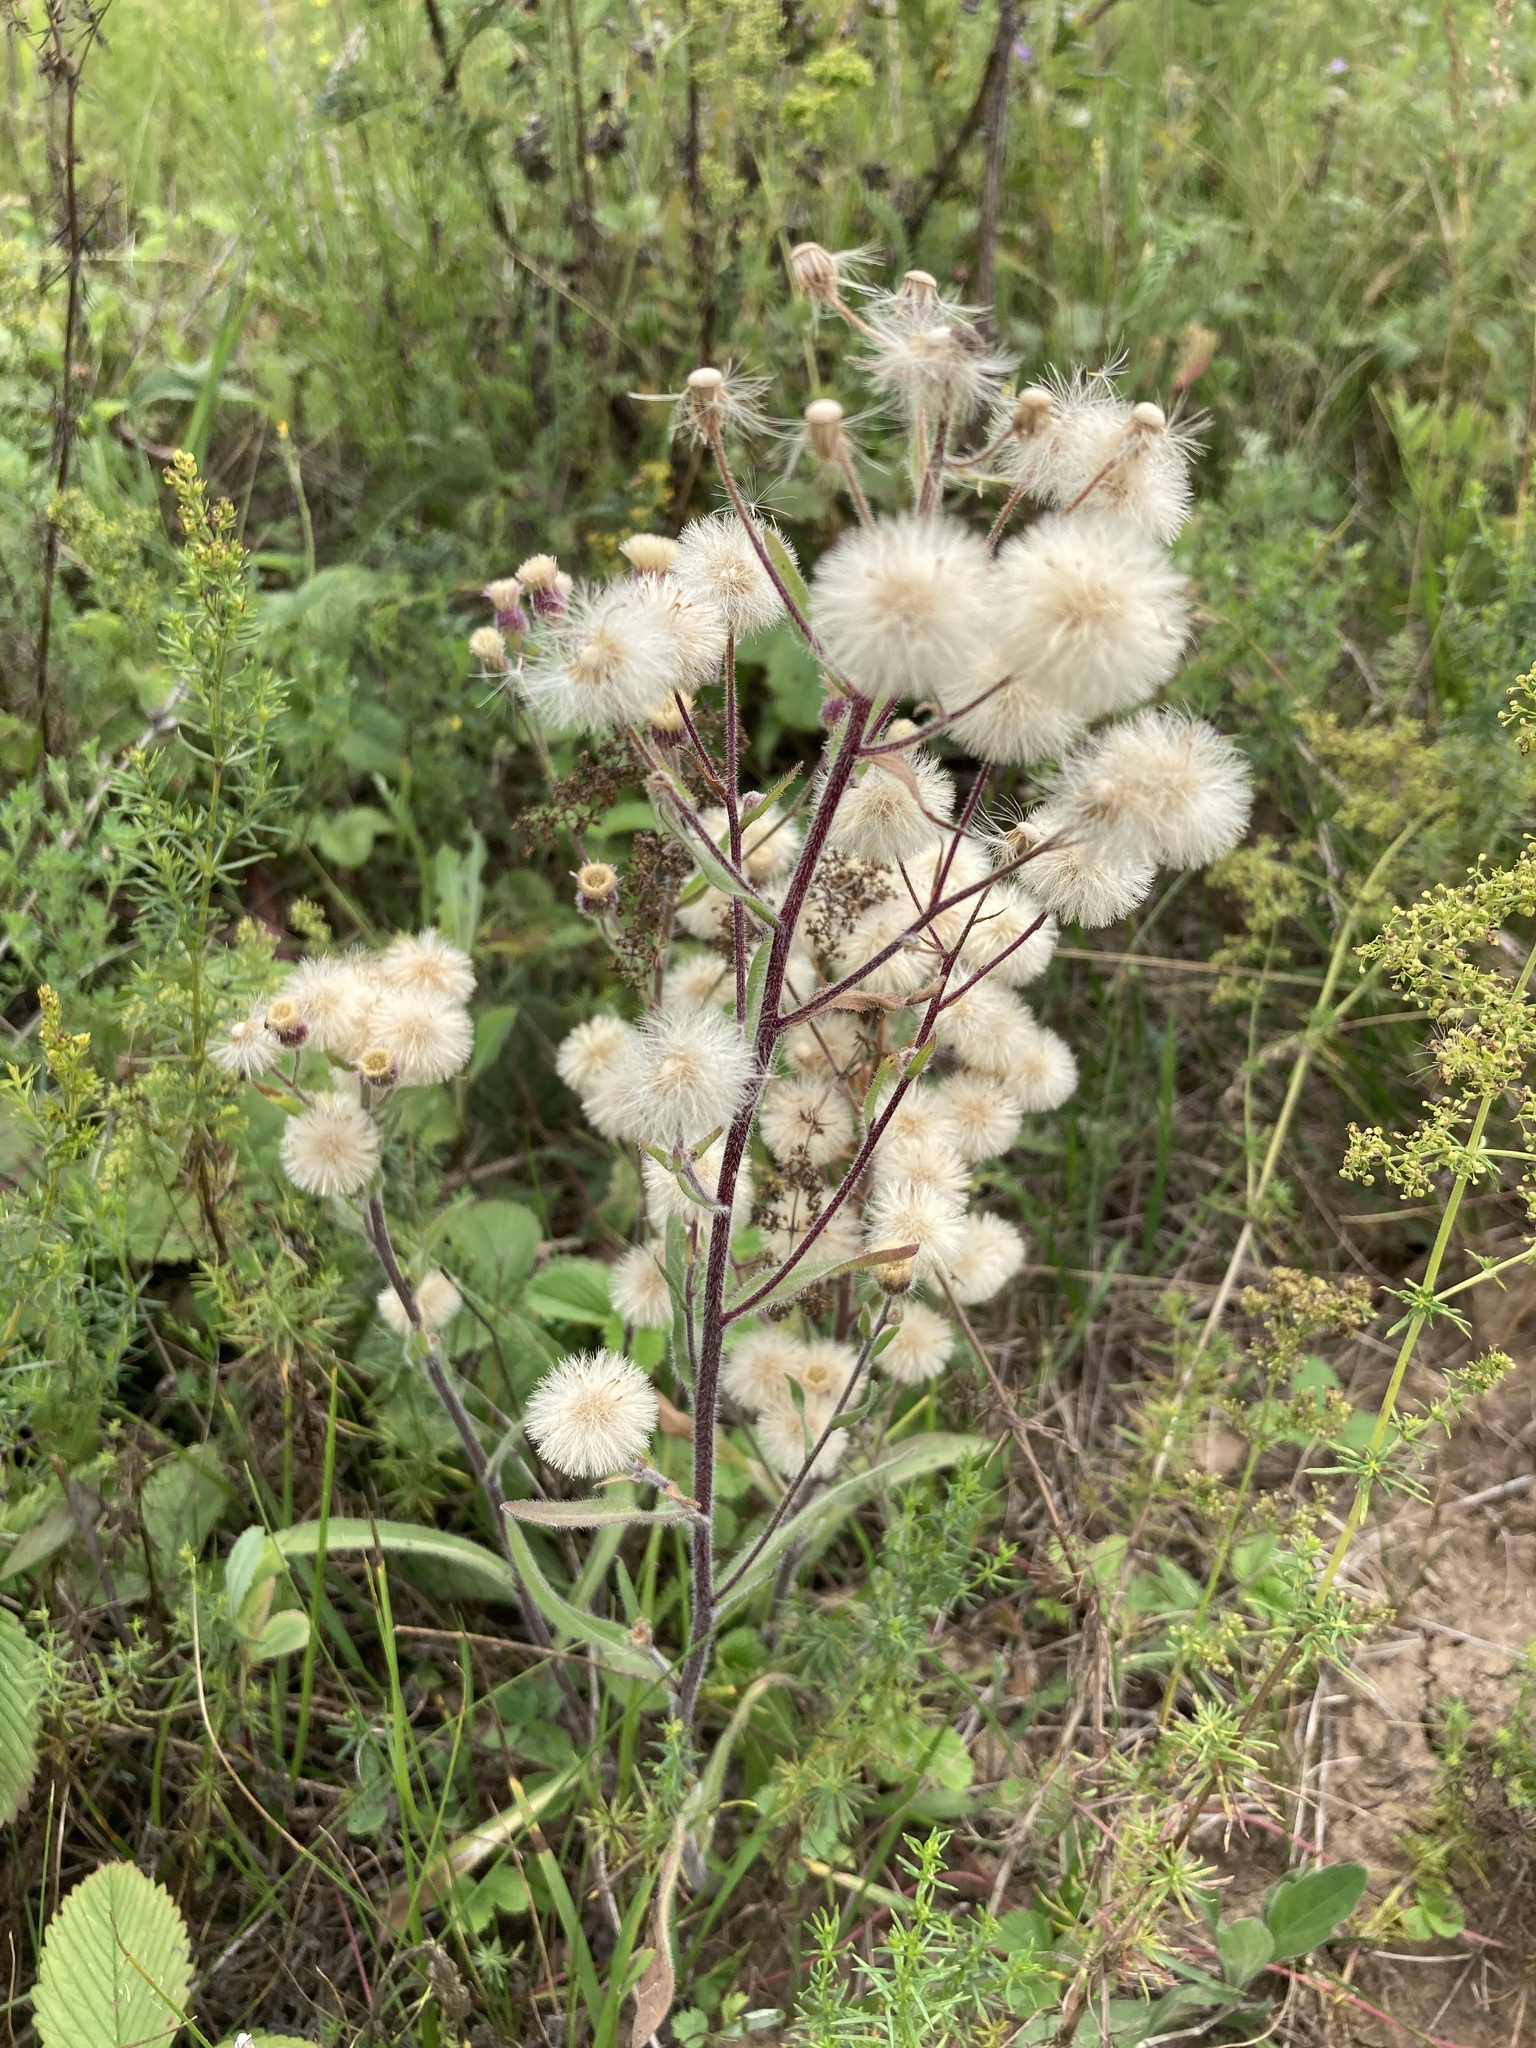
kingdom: Plantae
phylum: Tracheophyta
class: Magnoliopsida
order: Asterales
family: Asteraceae
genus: Erigeron
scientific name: Erigeron acris
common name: Blue fleabane
